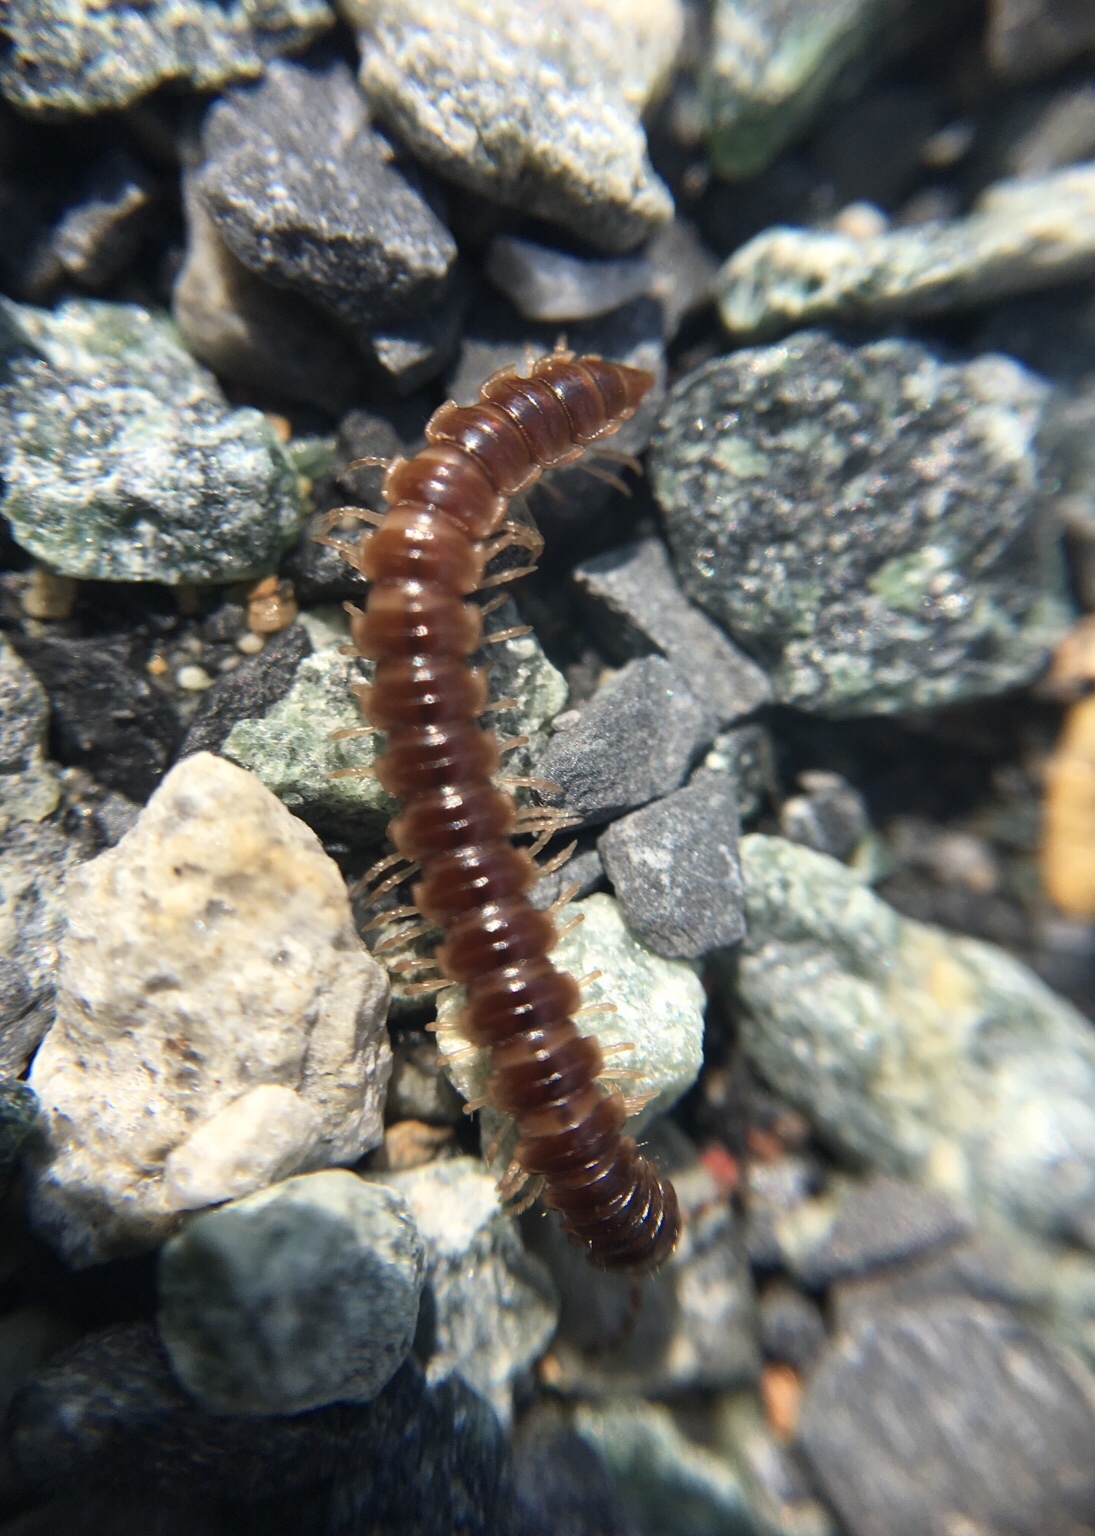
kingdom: Animalia
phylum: Arthropoda
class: Diplopoda
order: Polydesmida
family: Paradoxosomatidae
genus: Oxidus
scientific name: Oxidus gracilis
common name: Greenhouse millipede
